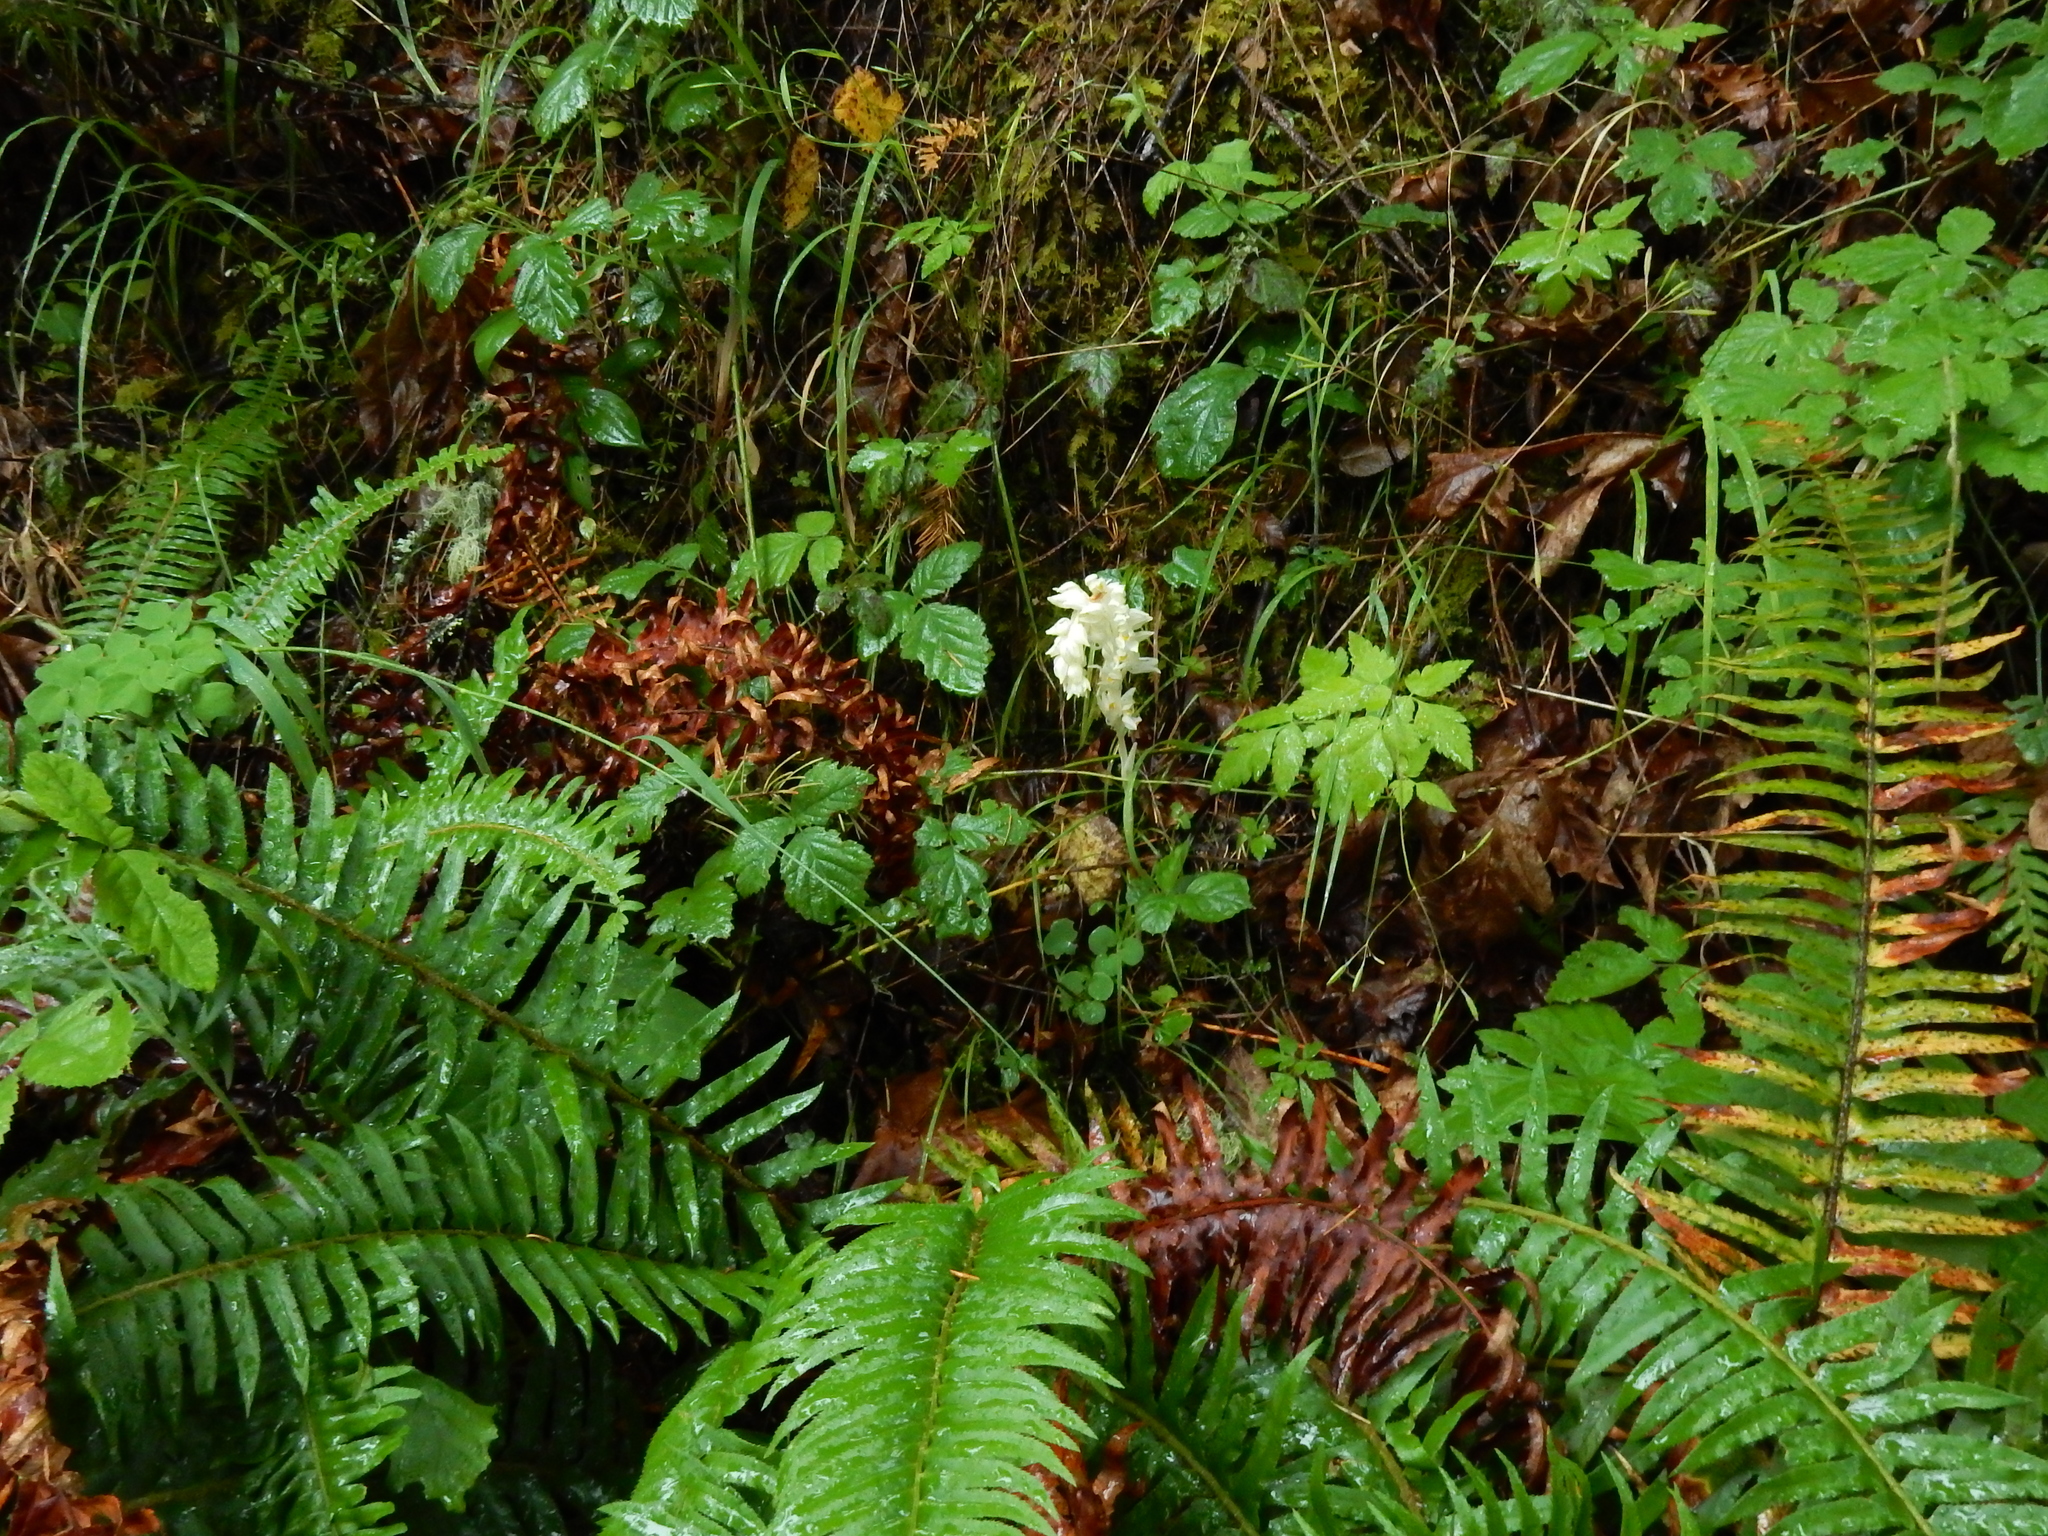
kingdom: Plantae
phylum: Tracheophyta
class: Liliopsida
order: Asparagales
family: Orchidaceae
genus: Cephalanthera
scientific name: Cephalanthera austiniae
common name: Phantom orchid
